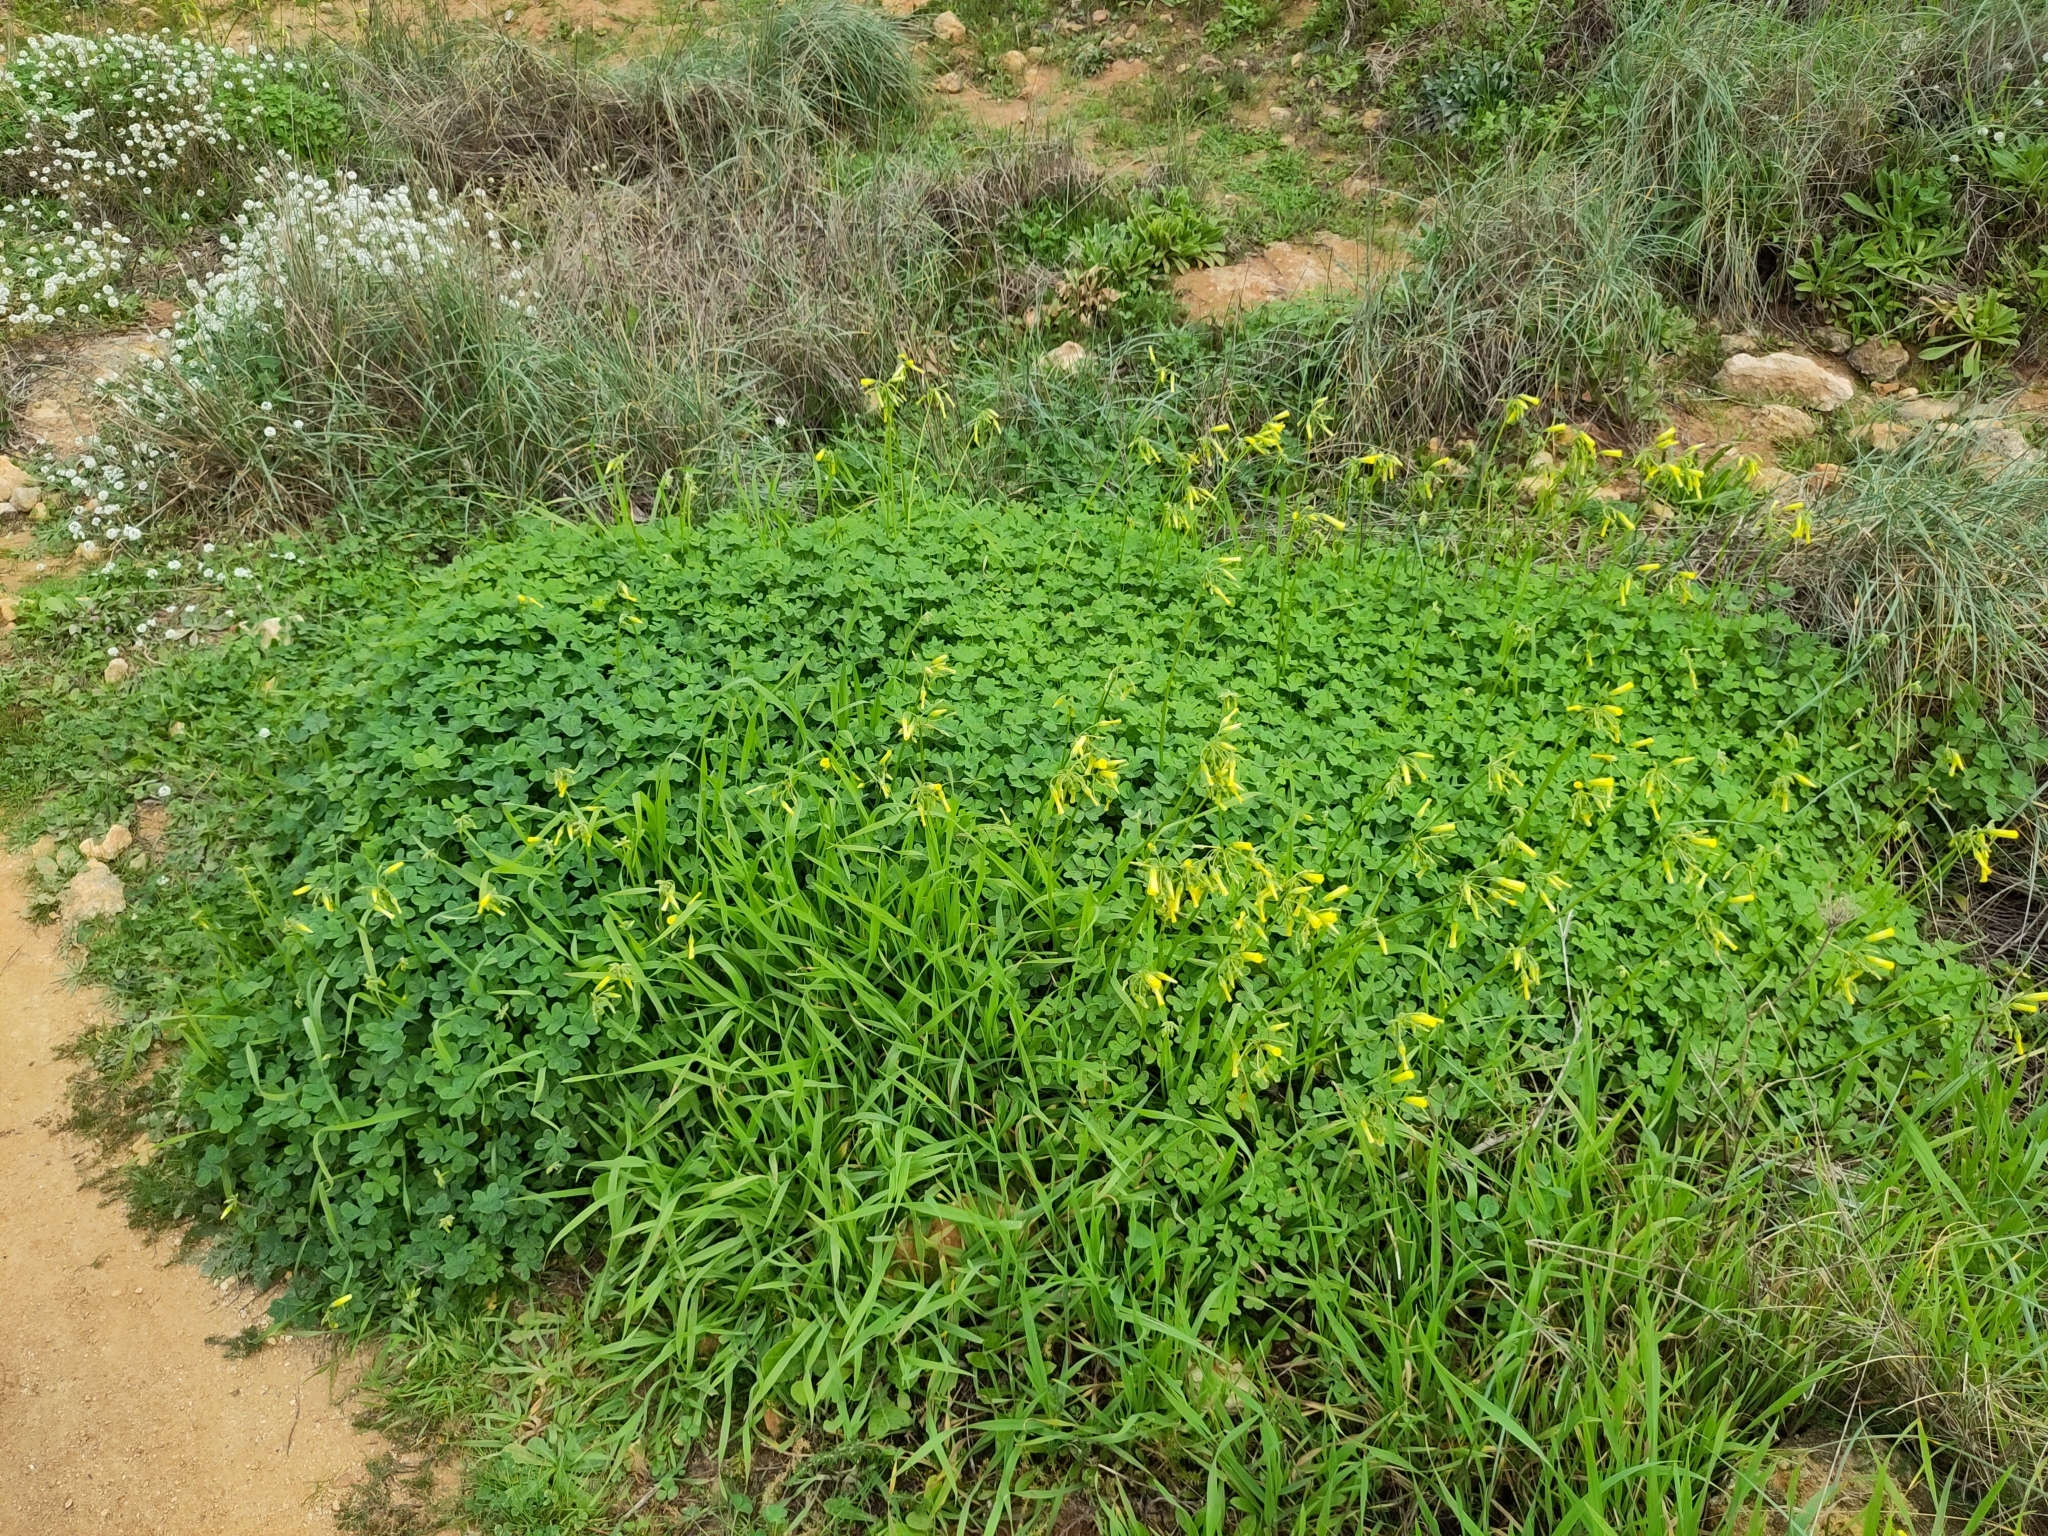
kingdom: Plantae
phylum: Tracheophyta
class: Magnoliopsida
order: Oxalidales
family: Oxalidaceae
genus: Oxalis
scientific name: Oxalis pes-caprae
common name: Bermuda-buttercup
